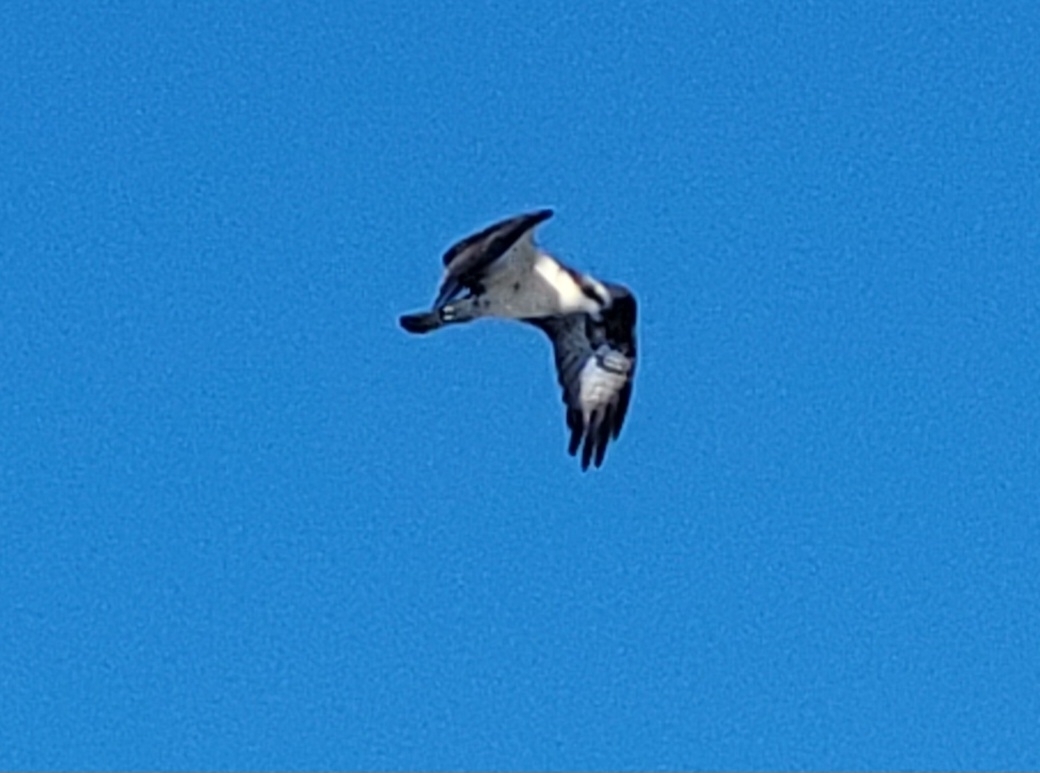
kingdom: Animalia
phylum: Chordata
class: Aves
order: Accipitriformes
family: Pandionidae
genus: Pandion
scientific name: Pandion haliaetus
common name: Osprey
